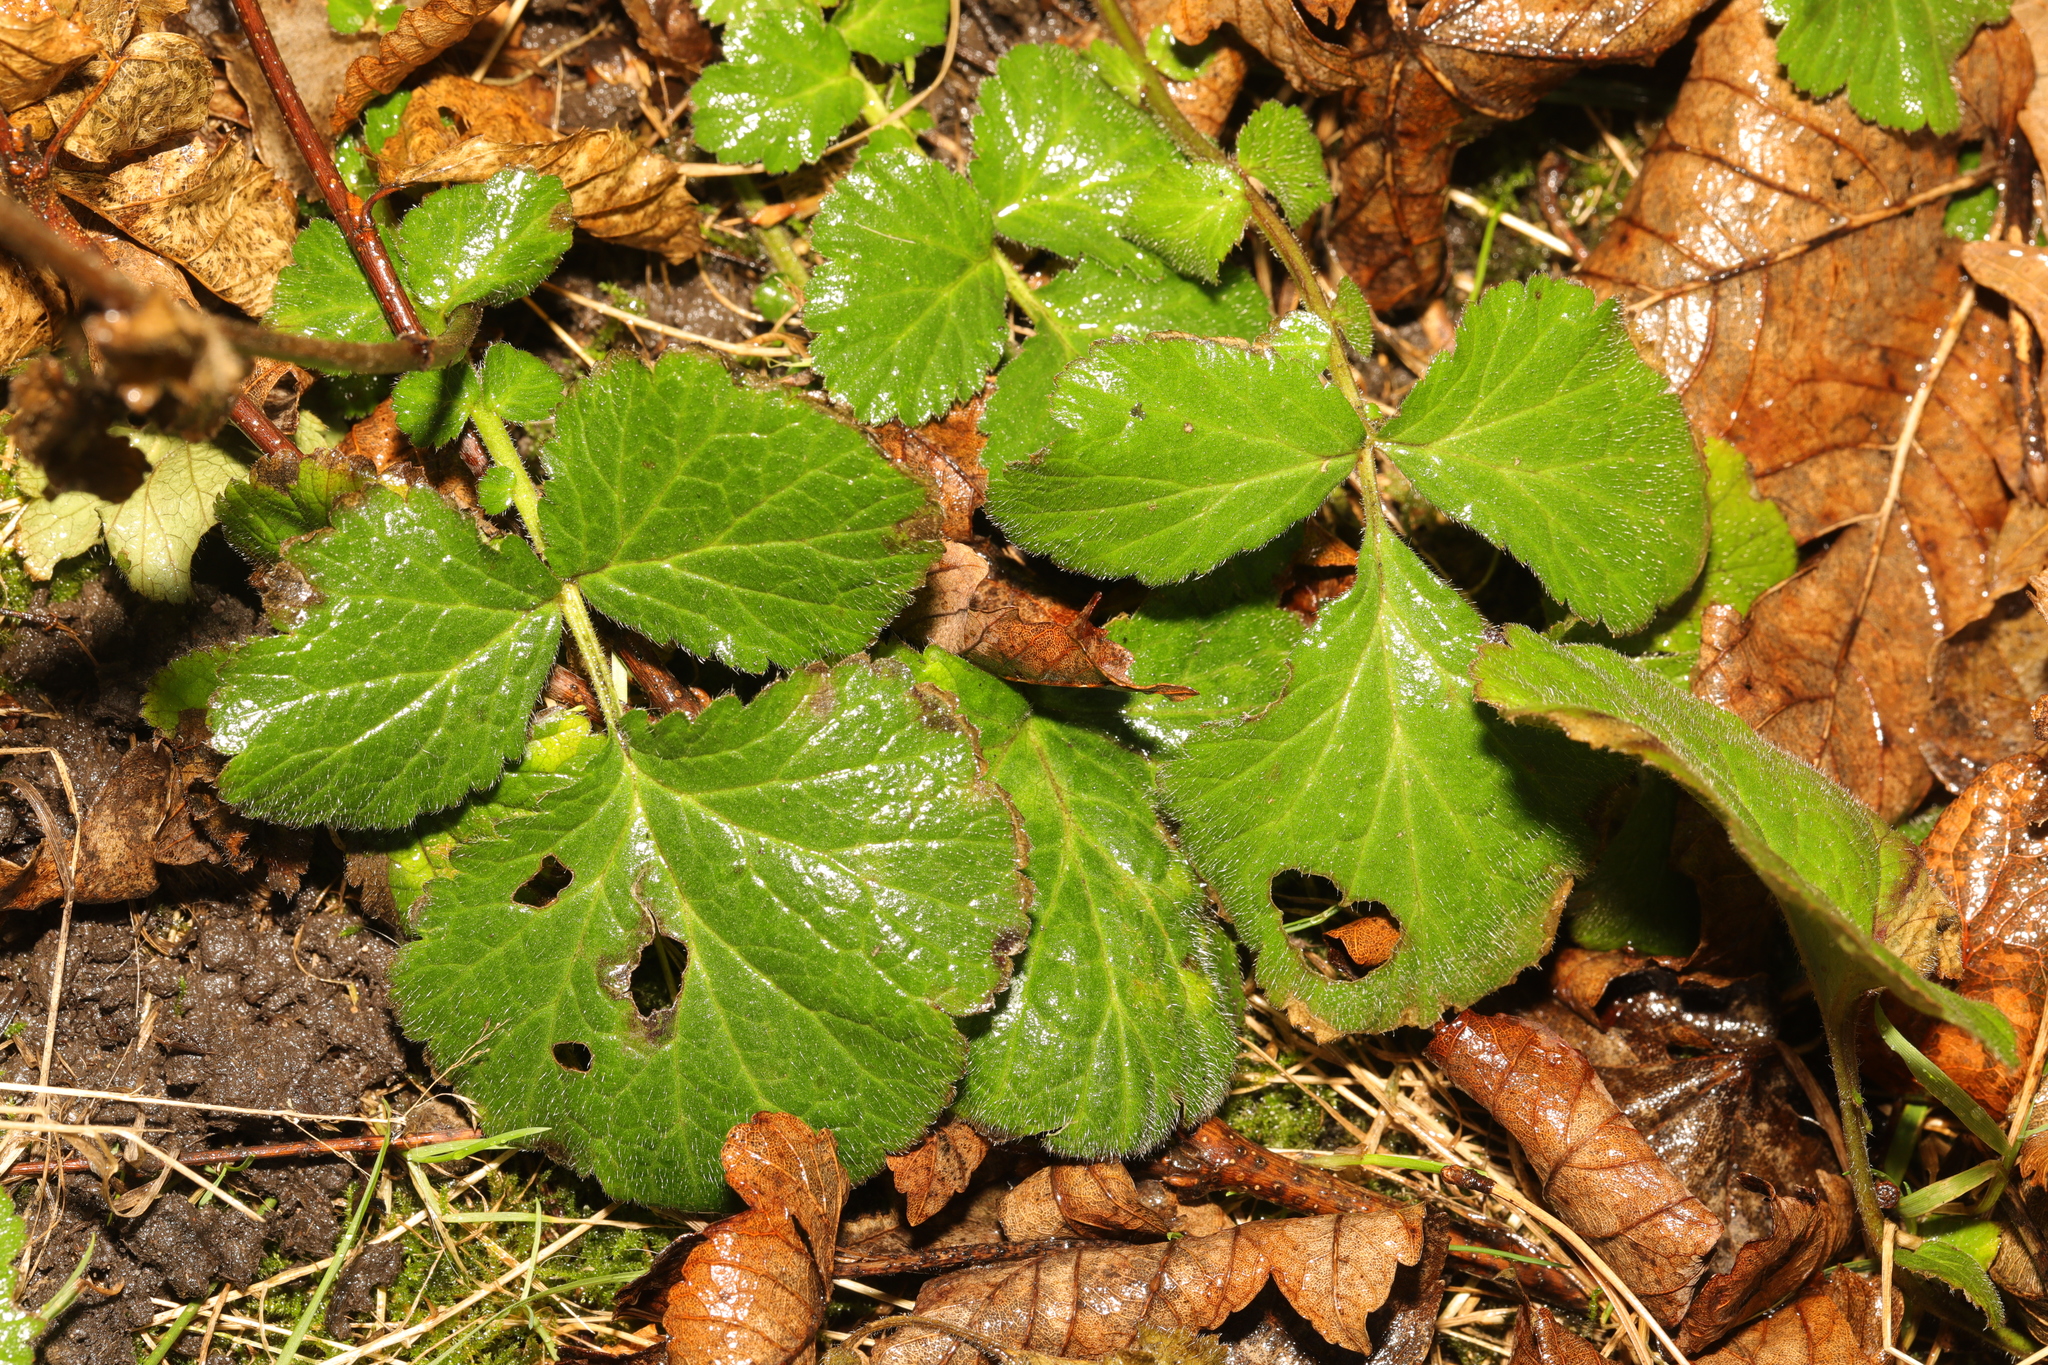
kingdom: Plantae
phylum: Tracheophyta
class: Magnoliopsida
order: Rosales
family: Rosaceae
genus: Geum
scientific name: Geum urbanum
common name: Wood avens
